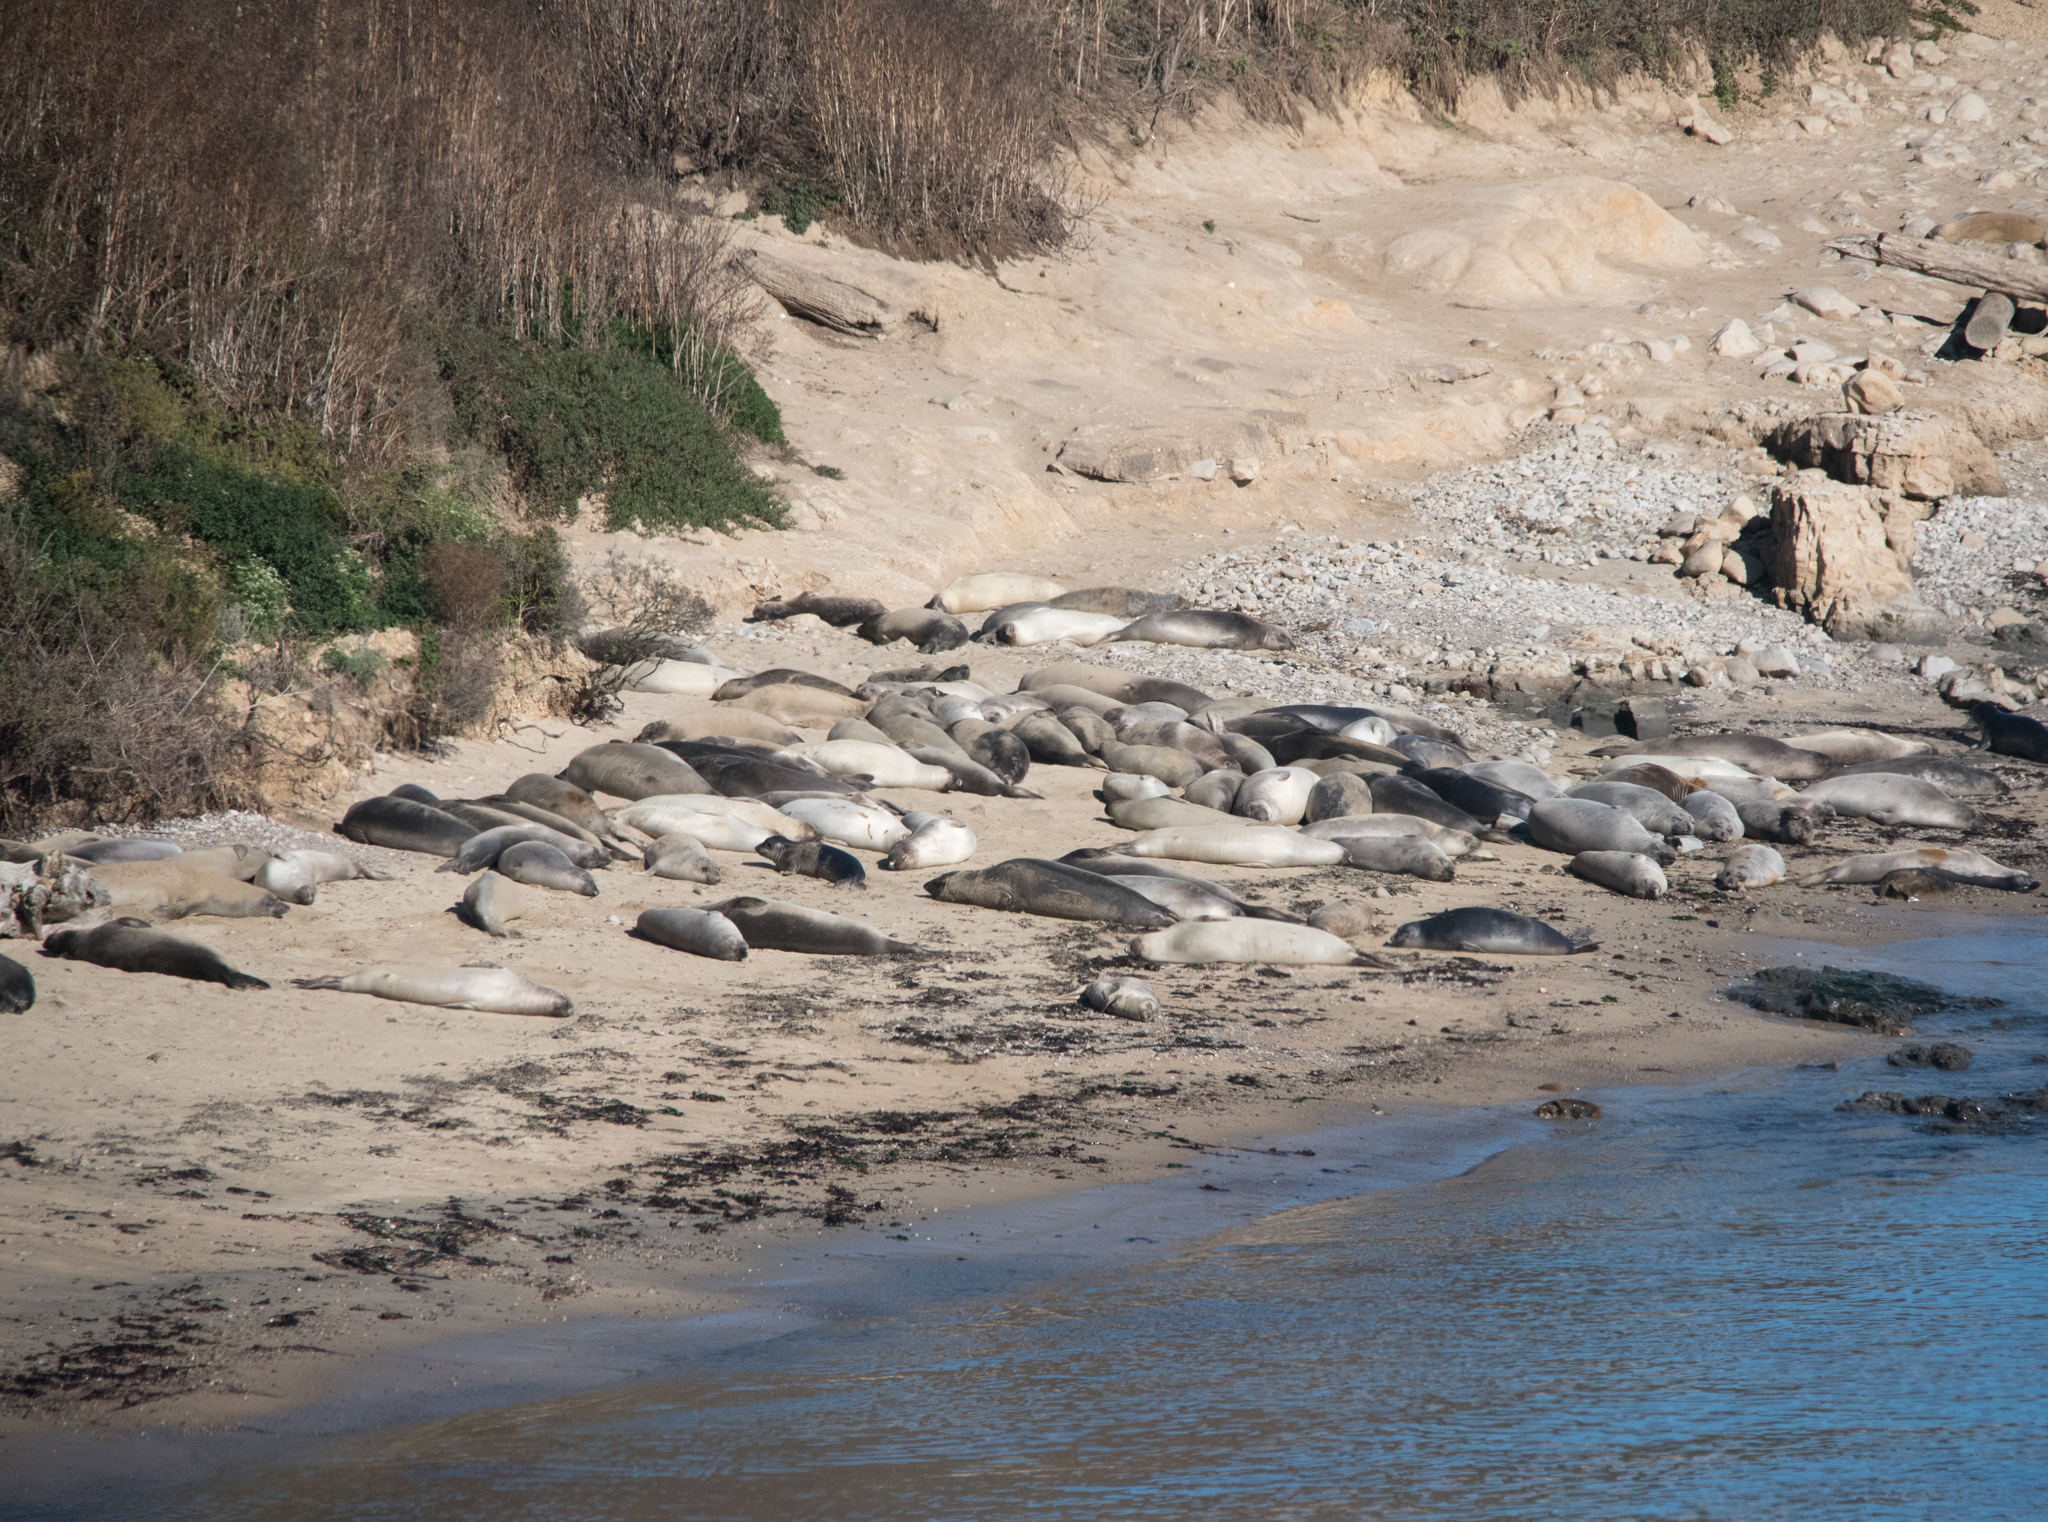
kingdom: Animalia
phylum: Chordata
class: Mammalia
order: Carnivora
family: Phocidae
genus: Mirounga
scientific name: Mirounga angustirostris
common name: Northern elephant seal
